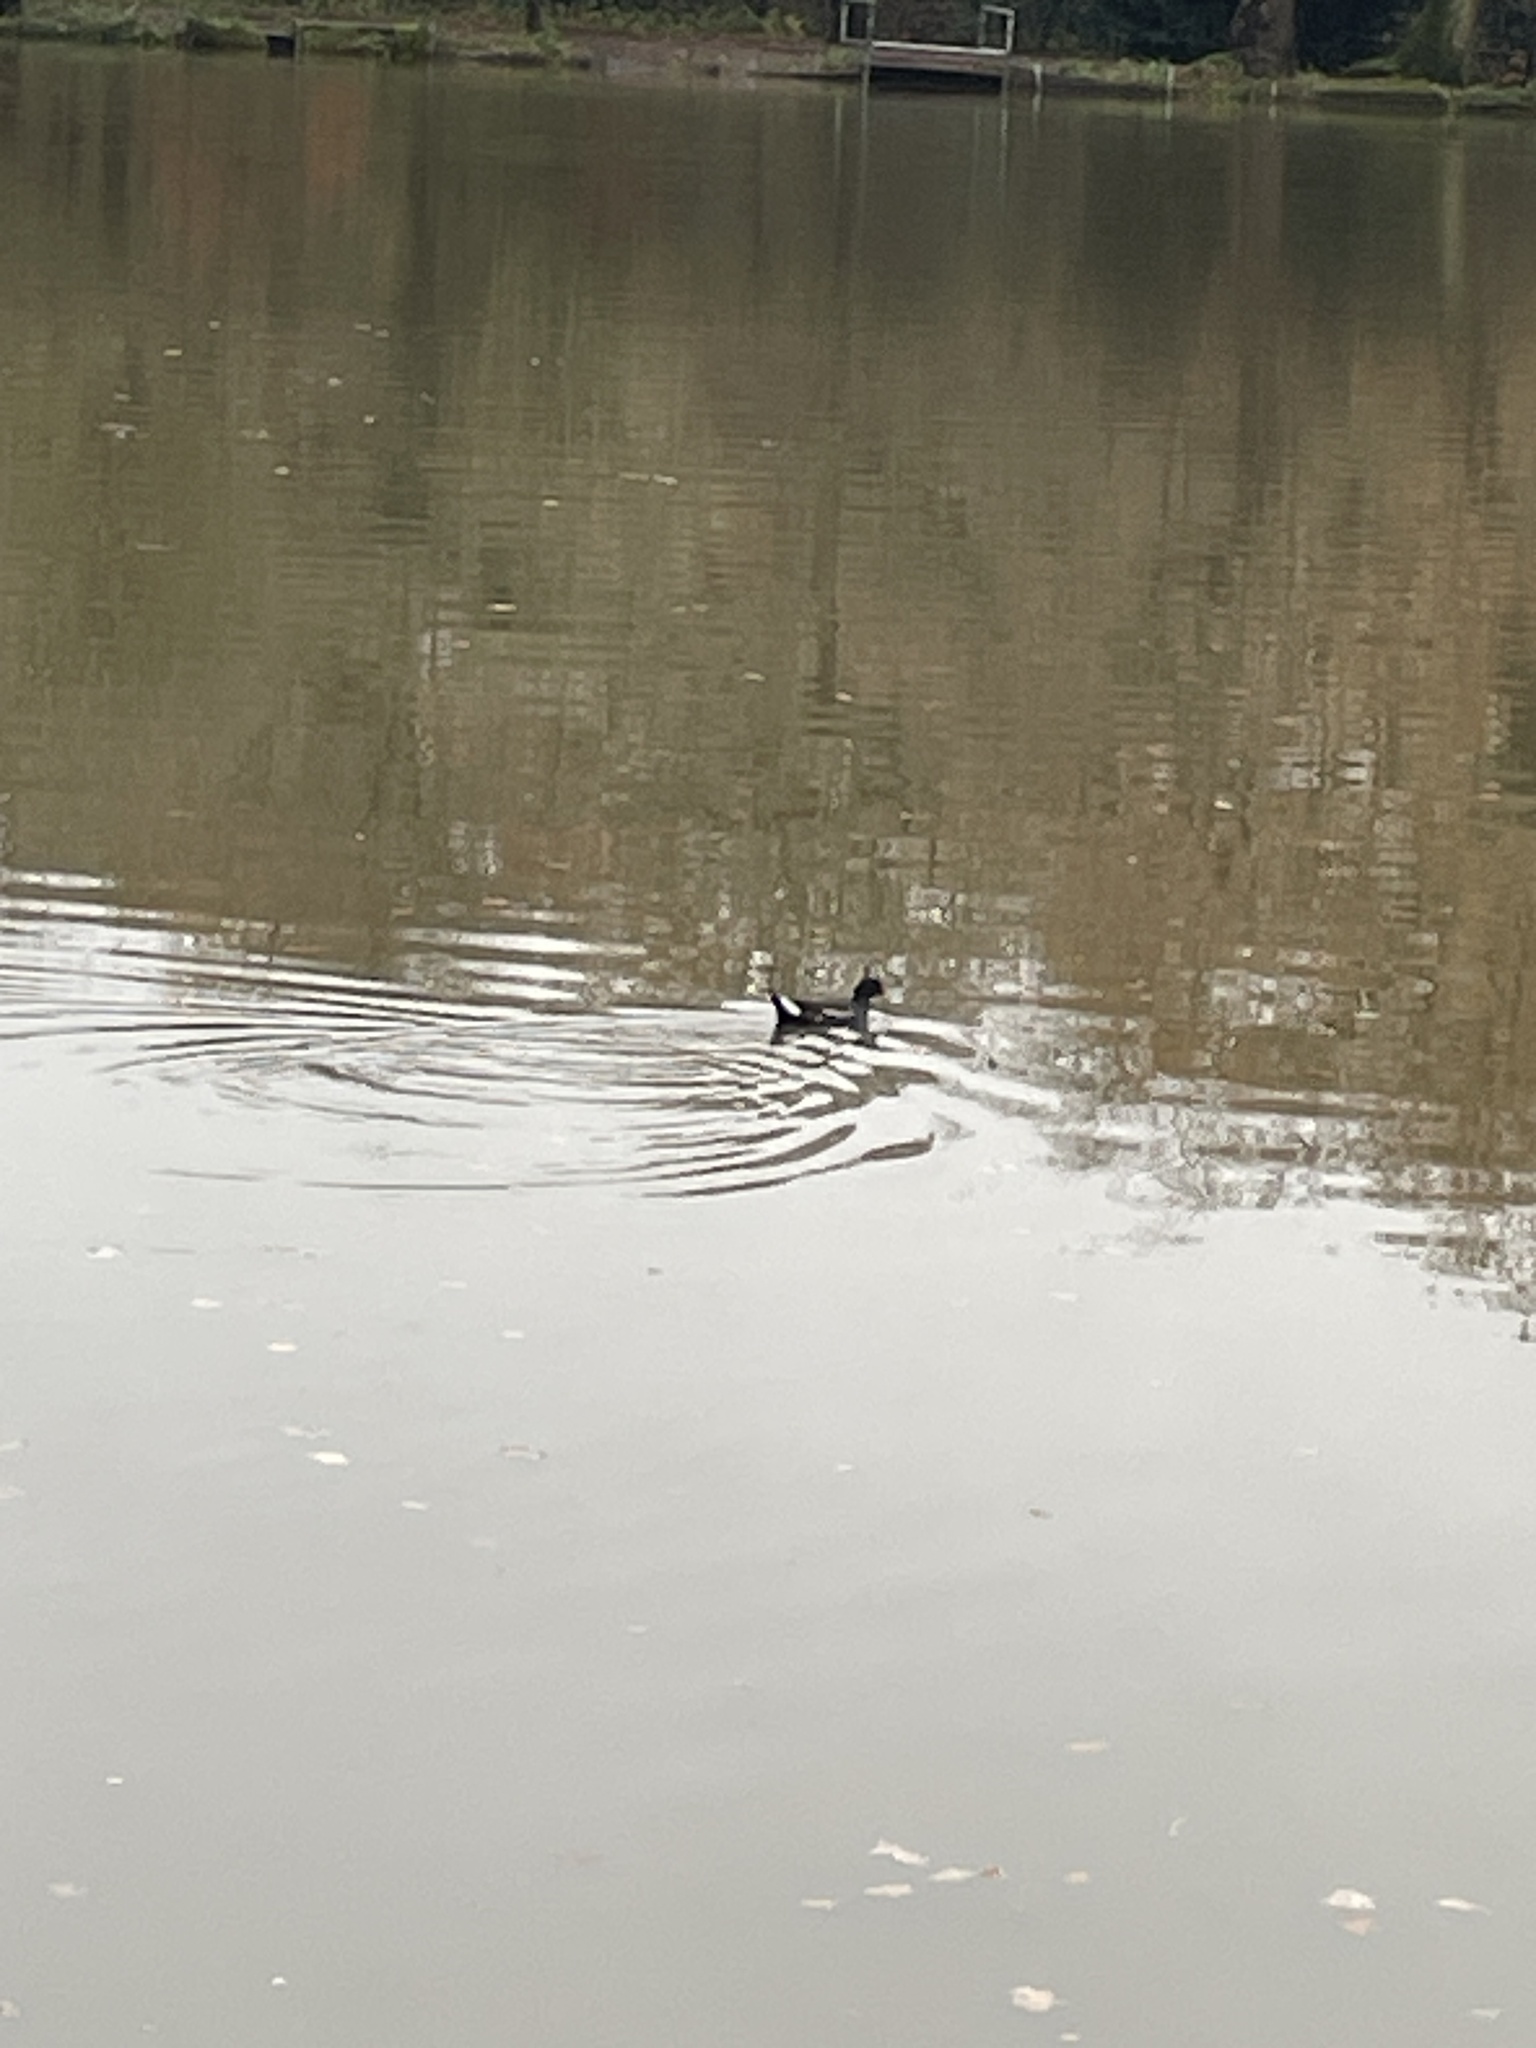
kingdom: Animalia
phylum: Chordata
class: Aves
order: Gruiformes
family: Rallidae
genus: Gallinula
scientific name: Gallinula chloropus
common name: Common moorhen
